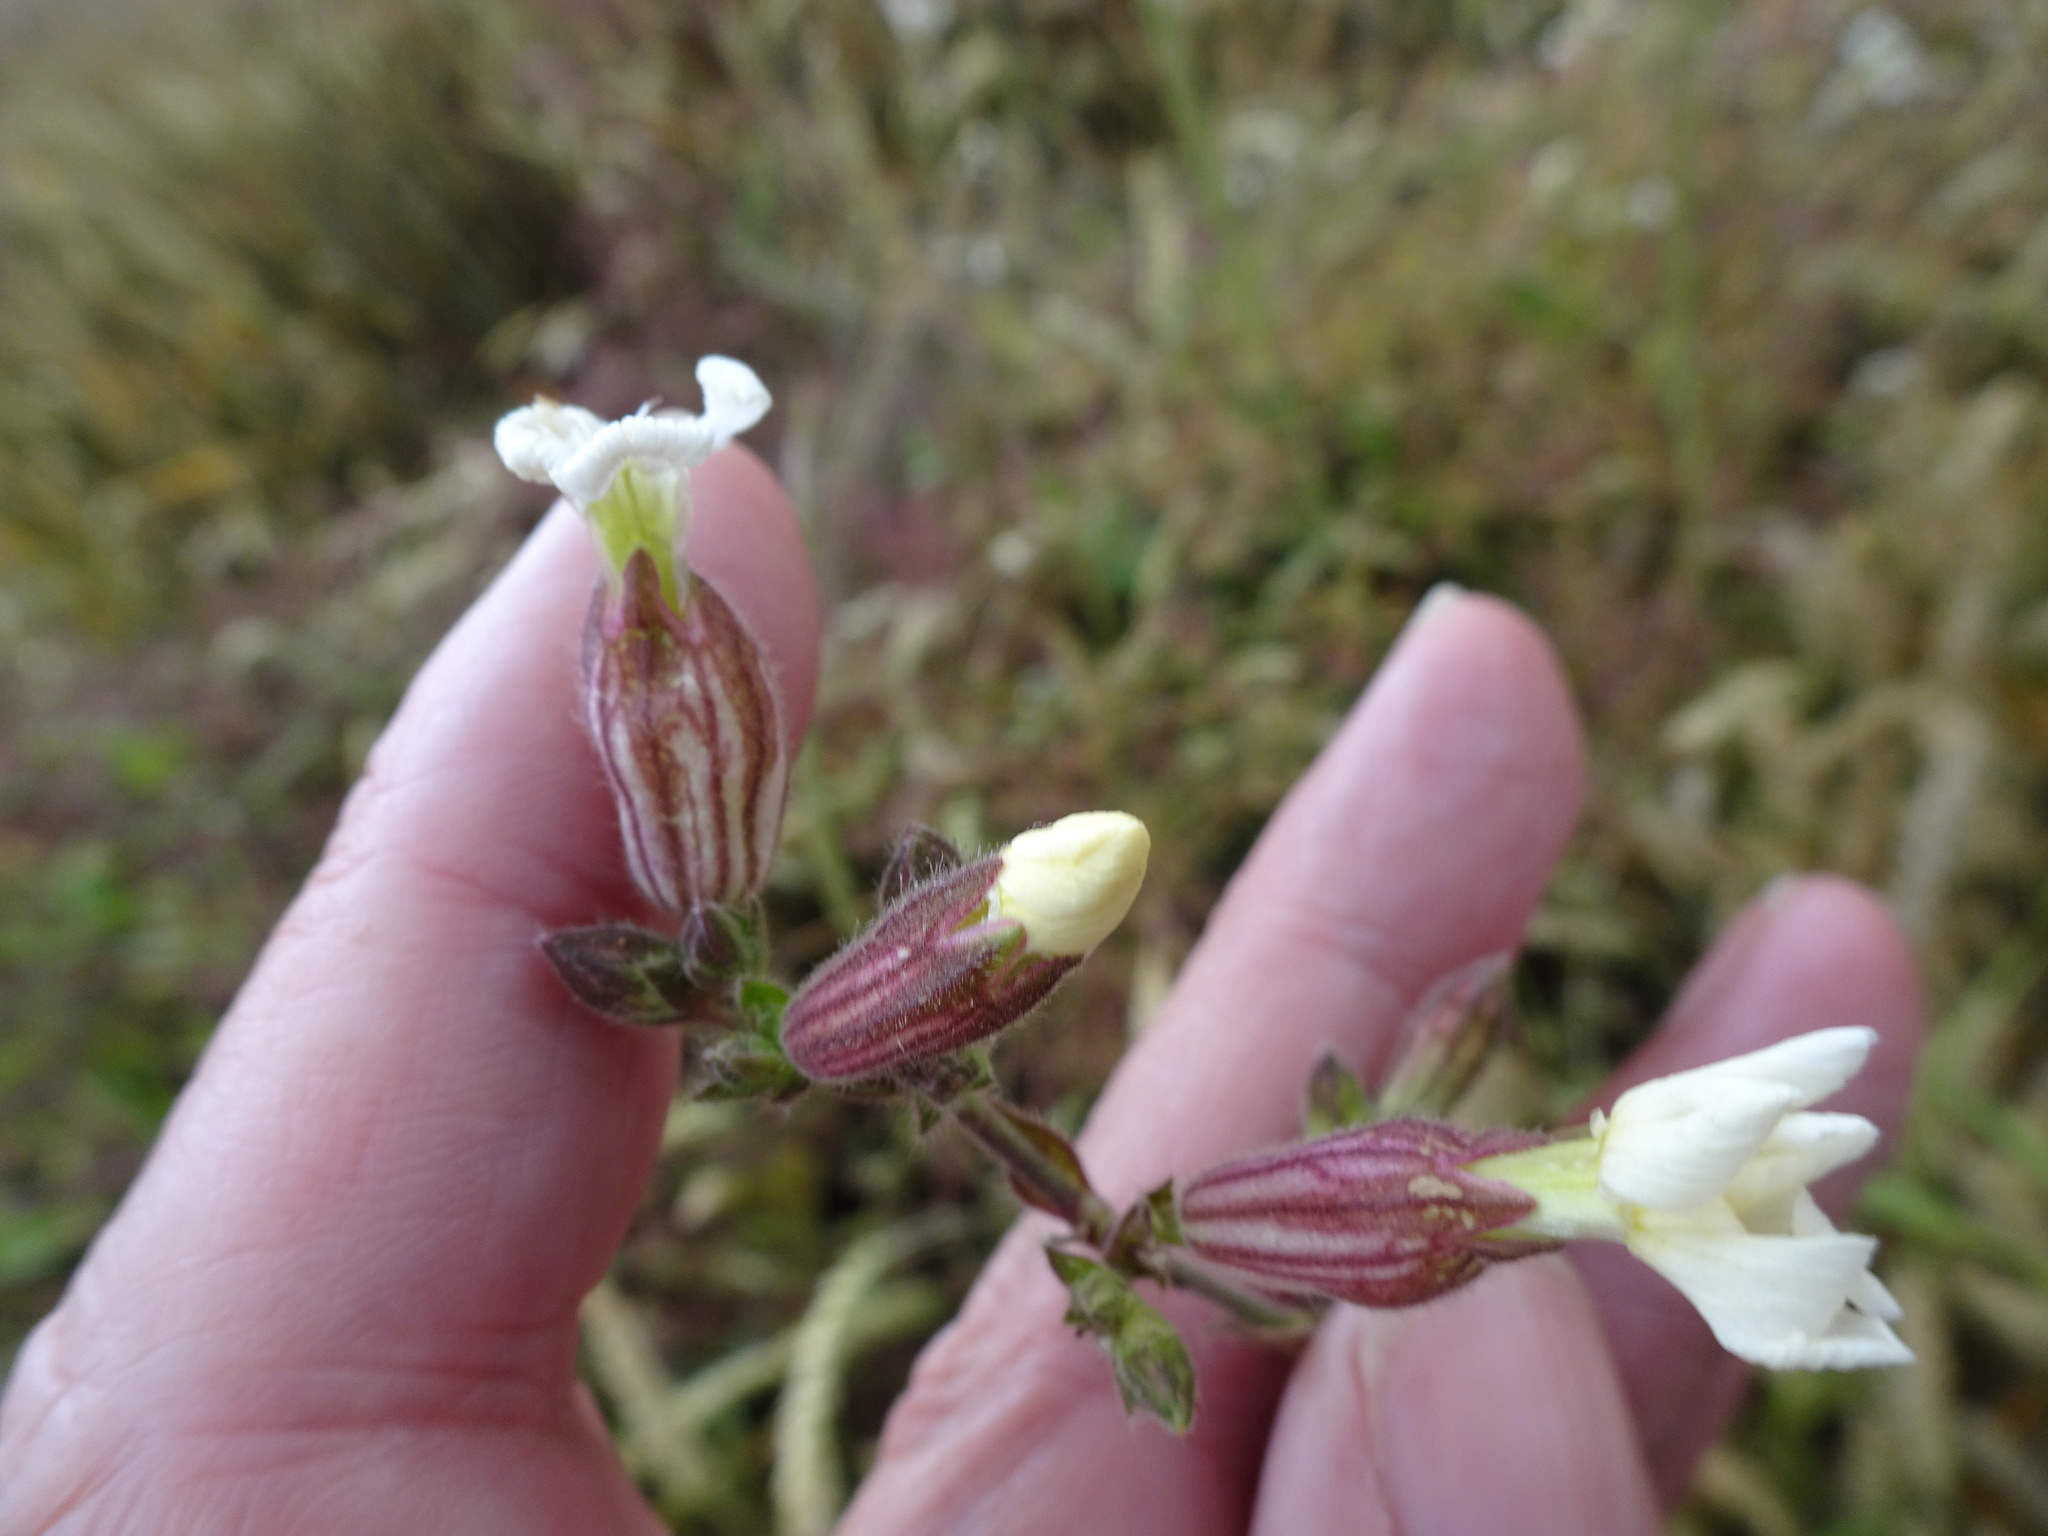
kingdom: Plantae
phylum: Tracheophyta
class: Magnoliopsida
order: Caryophyllales
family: Caryophyllaceae
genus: Silene
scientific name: Silene latifolia
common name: White campion
